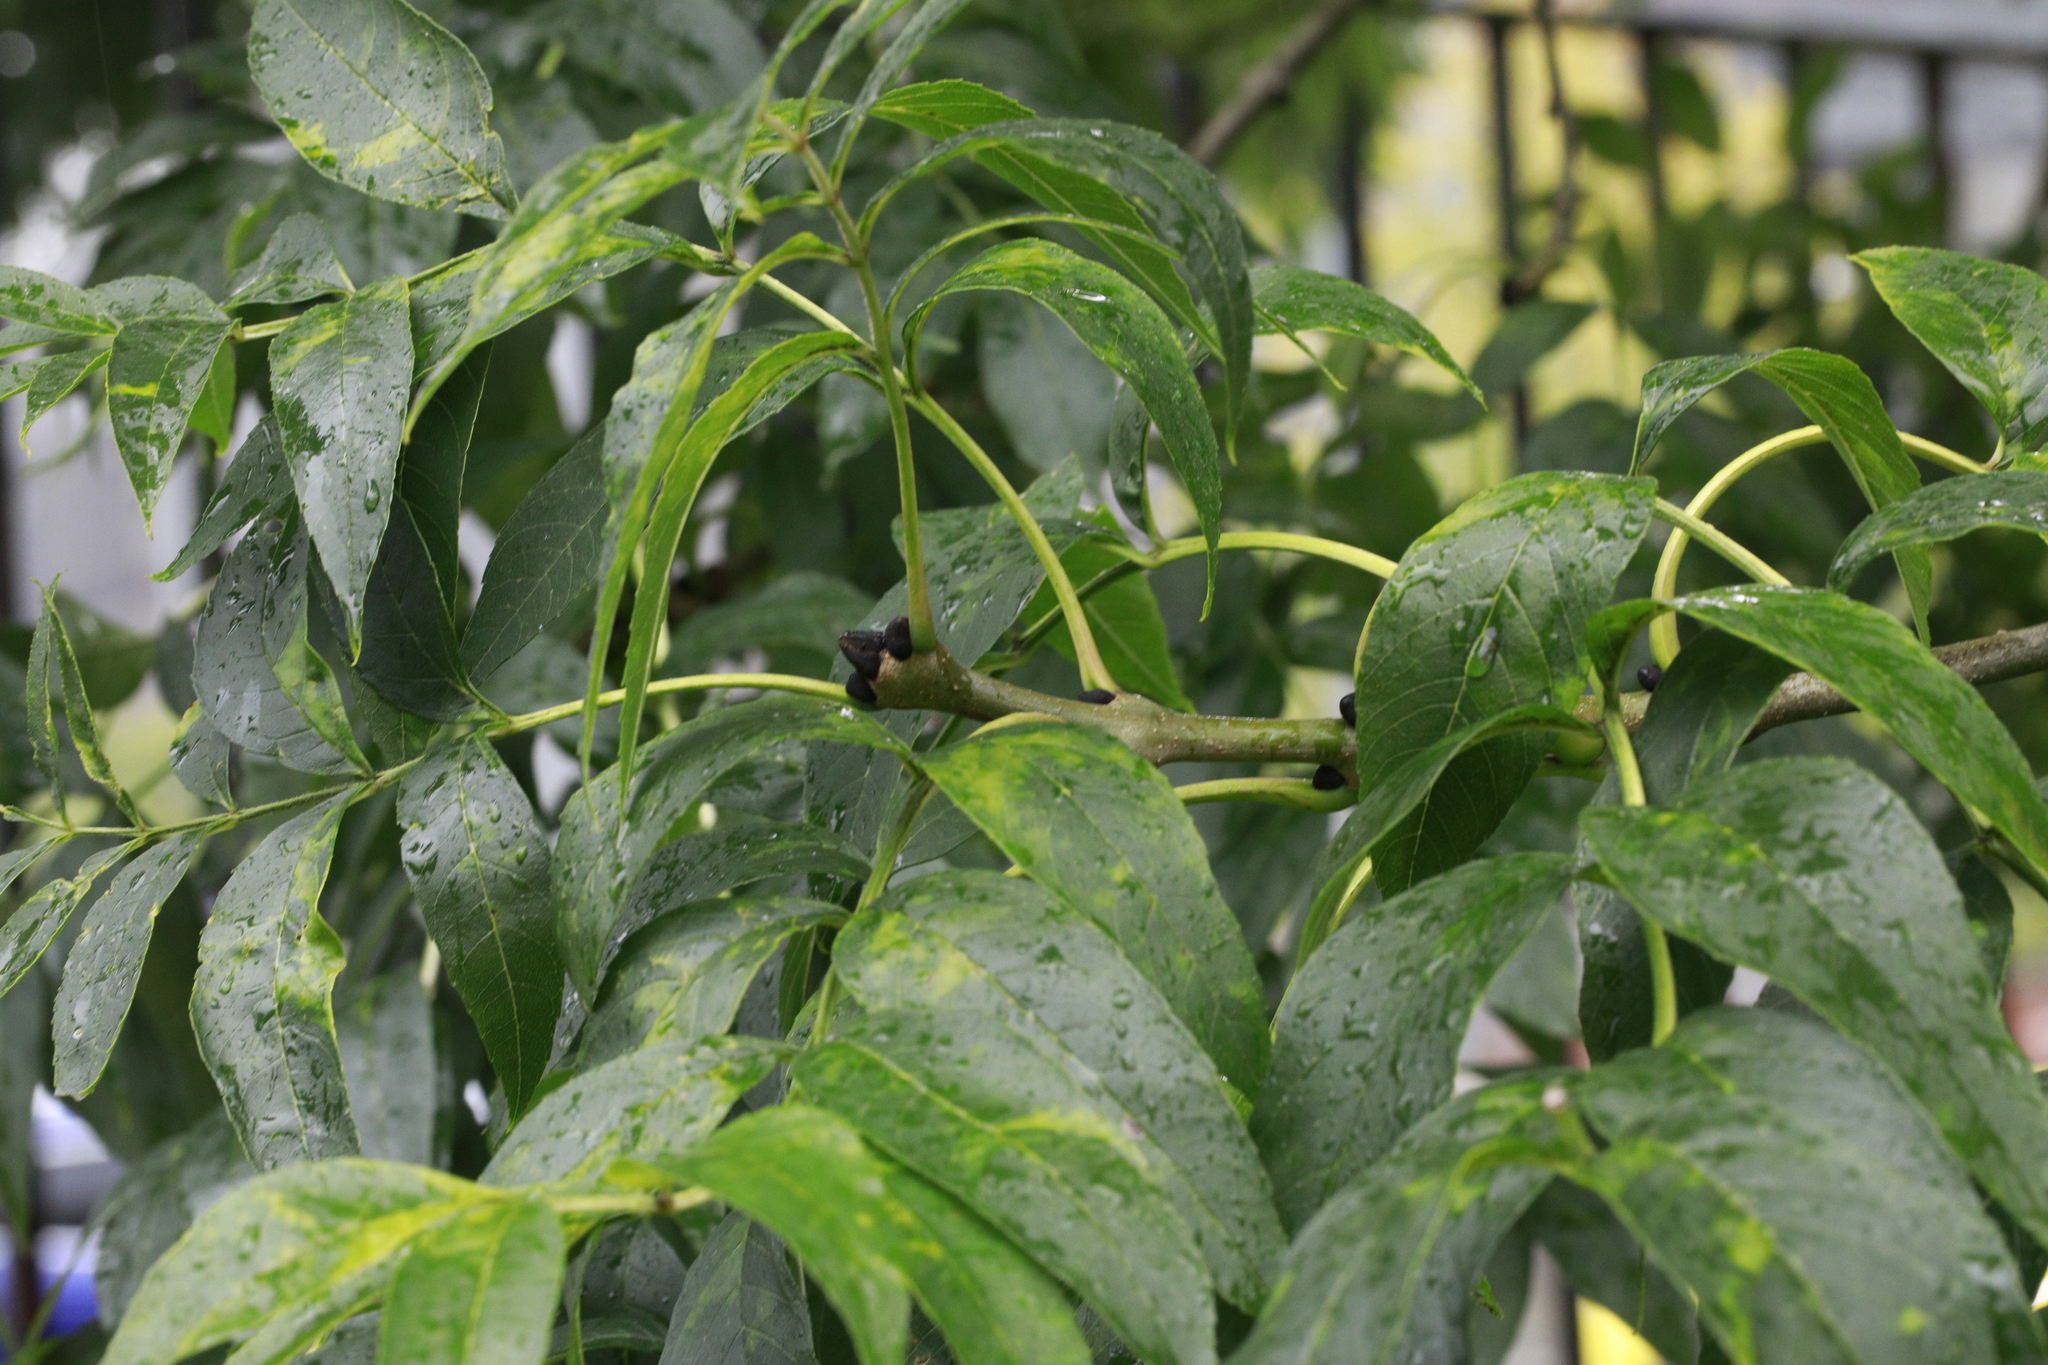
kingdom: Plantae
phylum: Tracheophyta
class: Magnoliopsida
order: Lamiales
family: Oleaceae
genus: Fraxinus
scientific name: Fraxinus excelsior
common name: European ash
